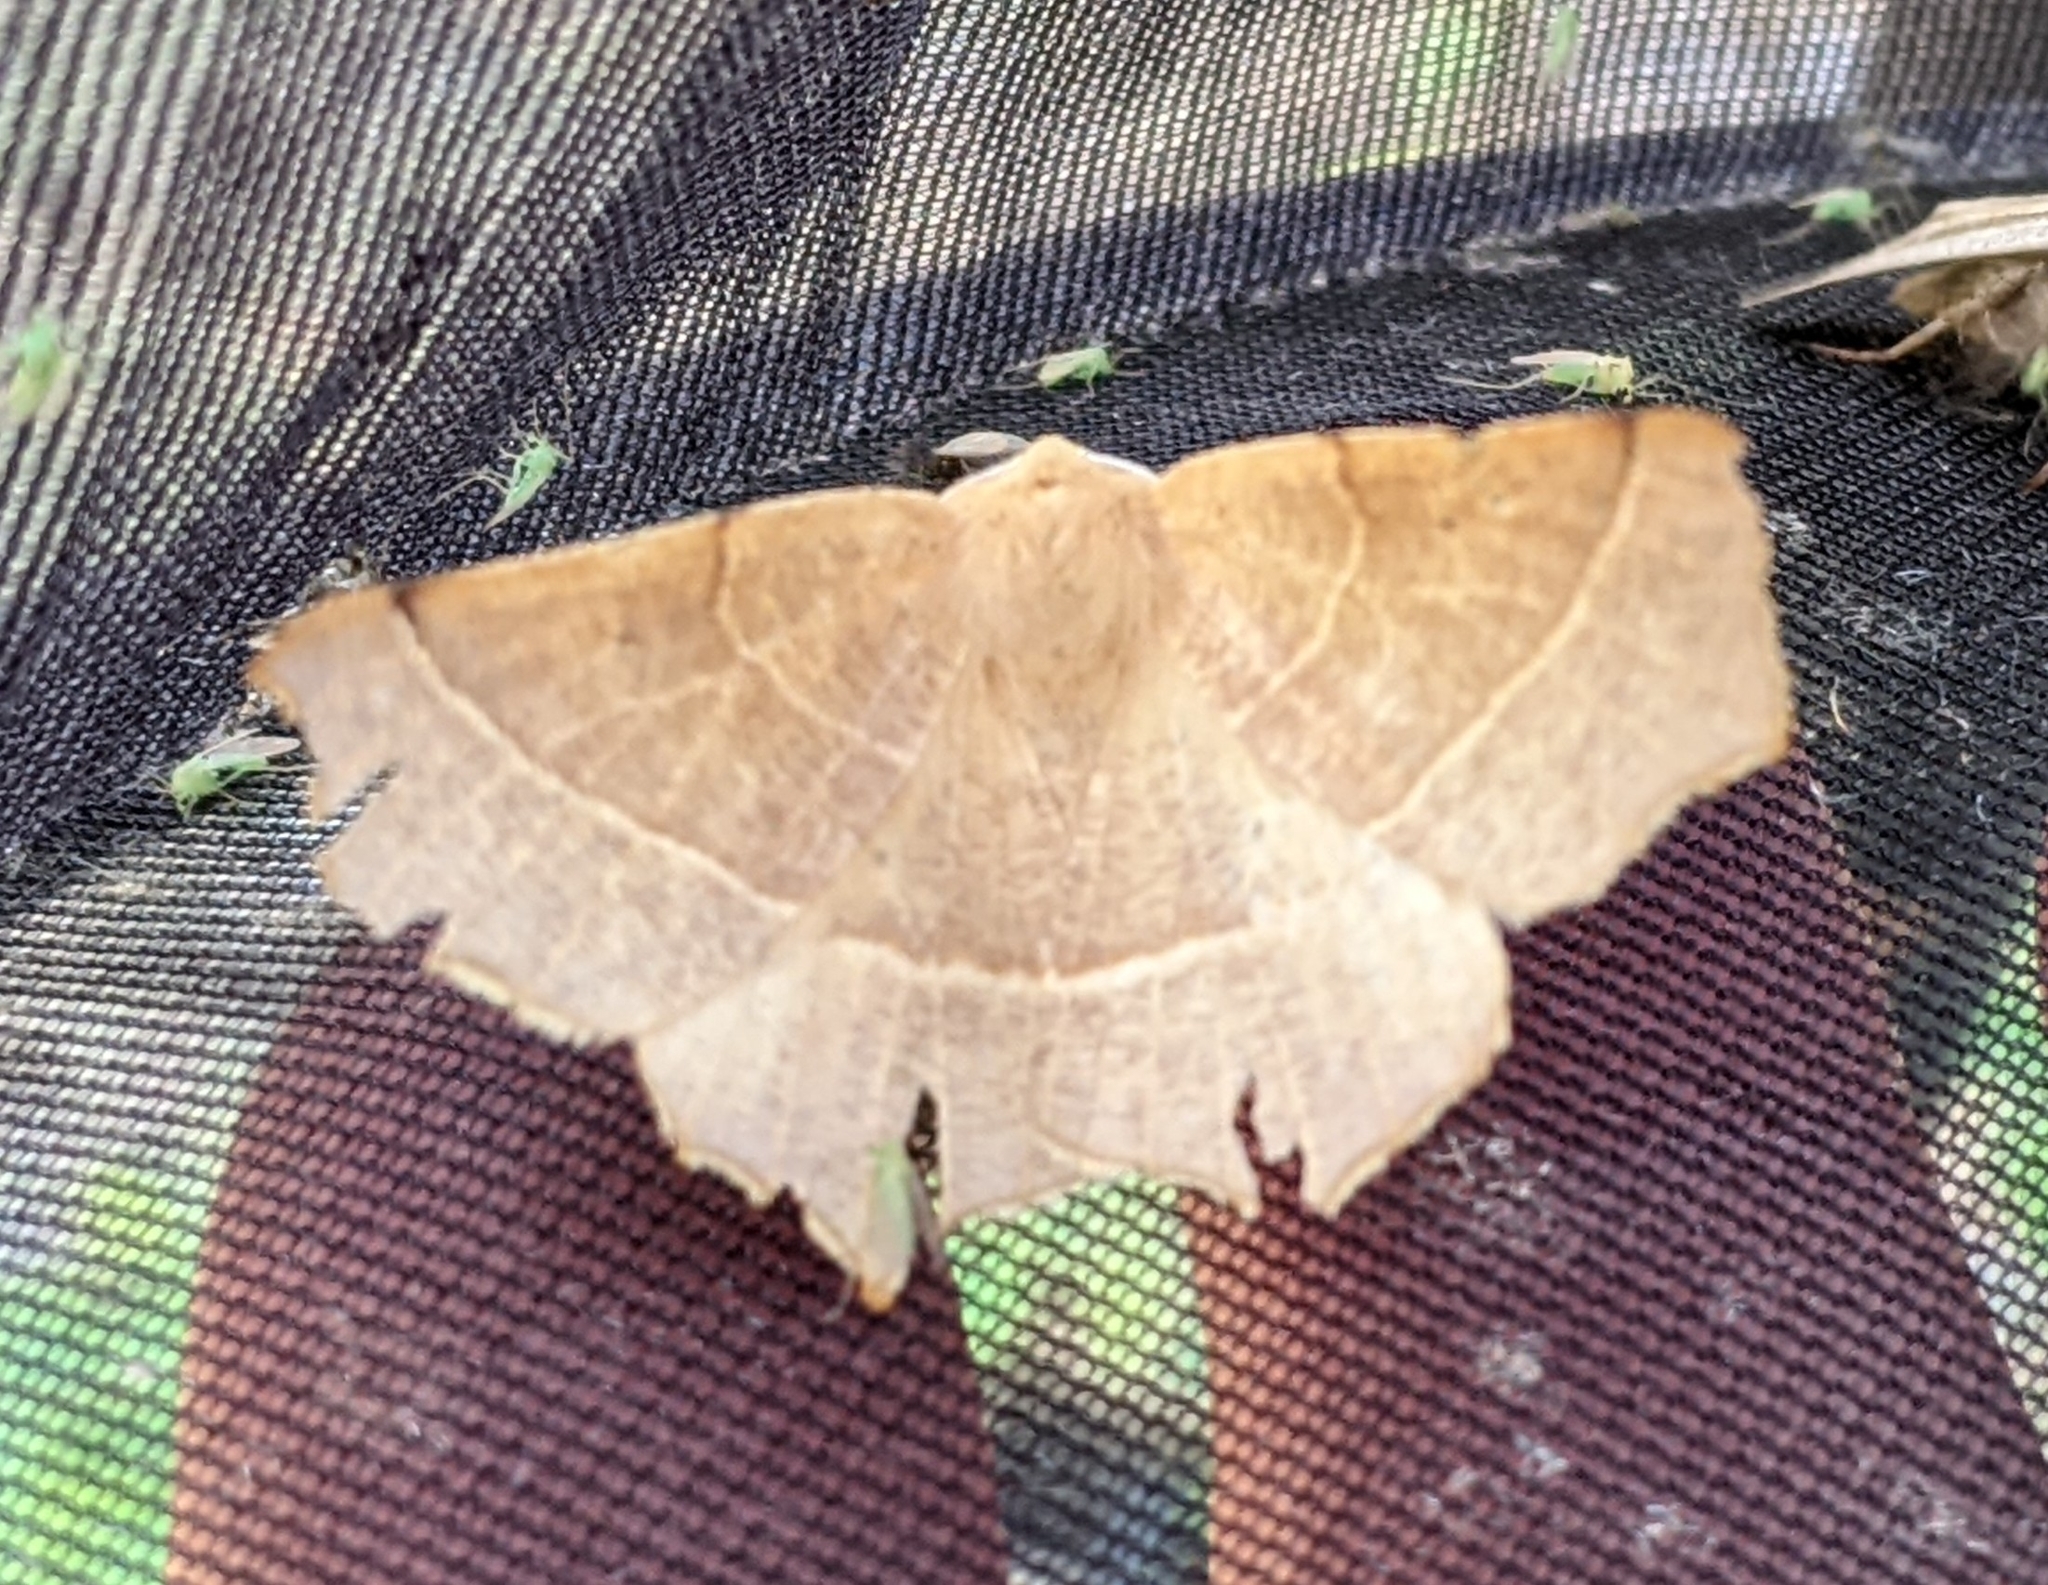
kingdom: Animalia
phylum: Arthropoda
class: Insecta
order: Lepidoptera
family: Geometridae
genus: Tetracis
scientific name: Tetracis cervinaria
